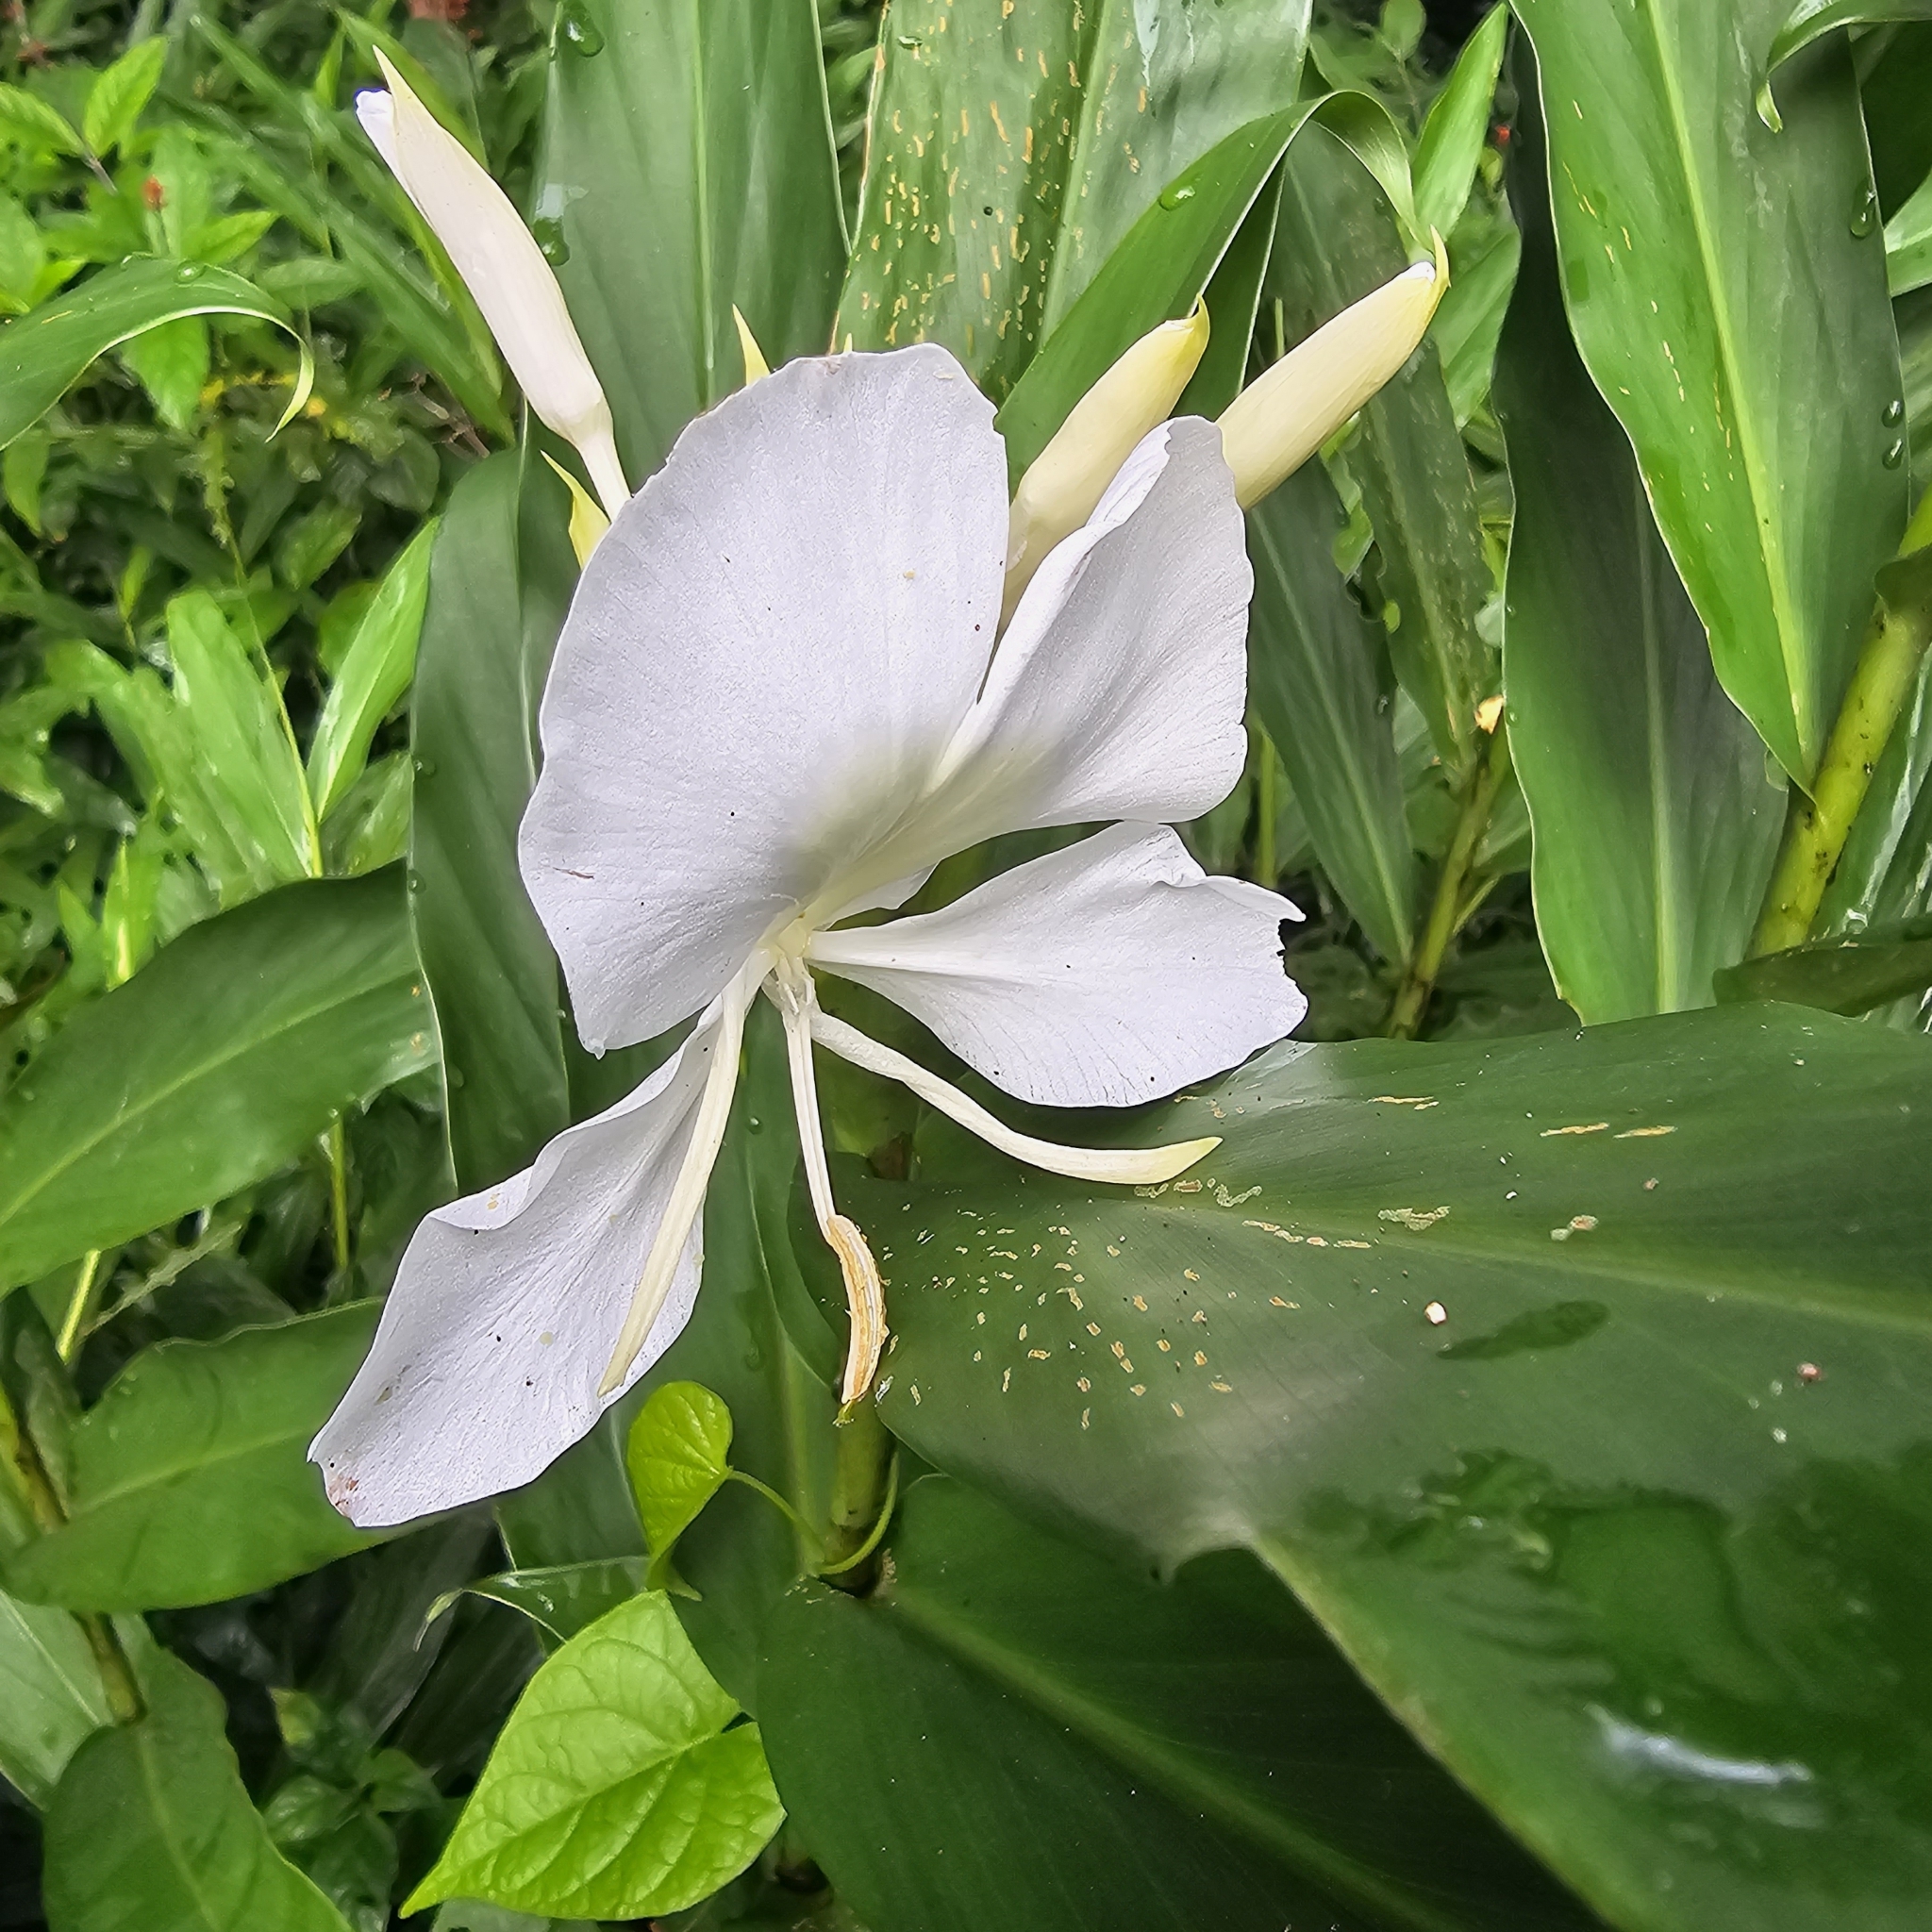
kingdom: Plantae
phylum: Tracheophyta
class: Liliopsida
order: Zingiberales
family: Zingiberaceae
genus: Hedychium
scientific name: Hedychium coronarium
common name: White garland-lily
